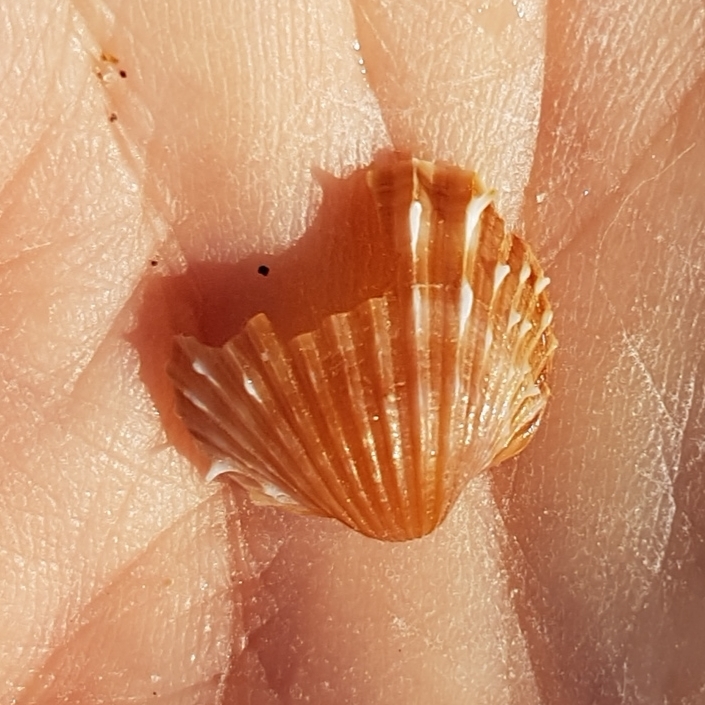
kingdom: Animalia
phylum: Mollusca
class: Bivalvia
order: Cardiida
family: Cardiidae
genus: Acanthocardia
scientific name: Acanthocardia aculeata
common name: Spiny cockle
